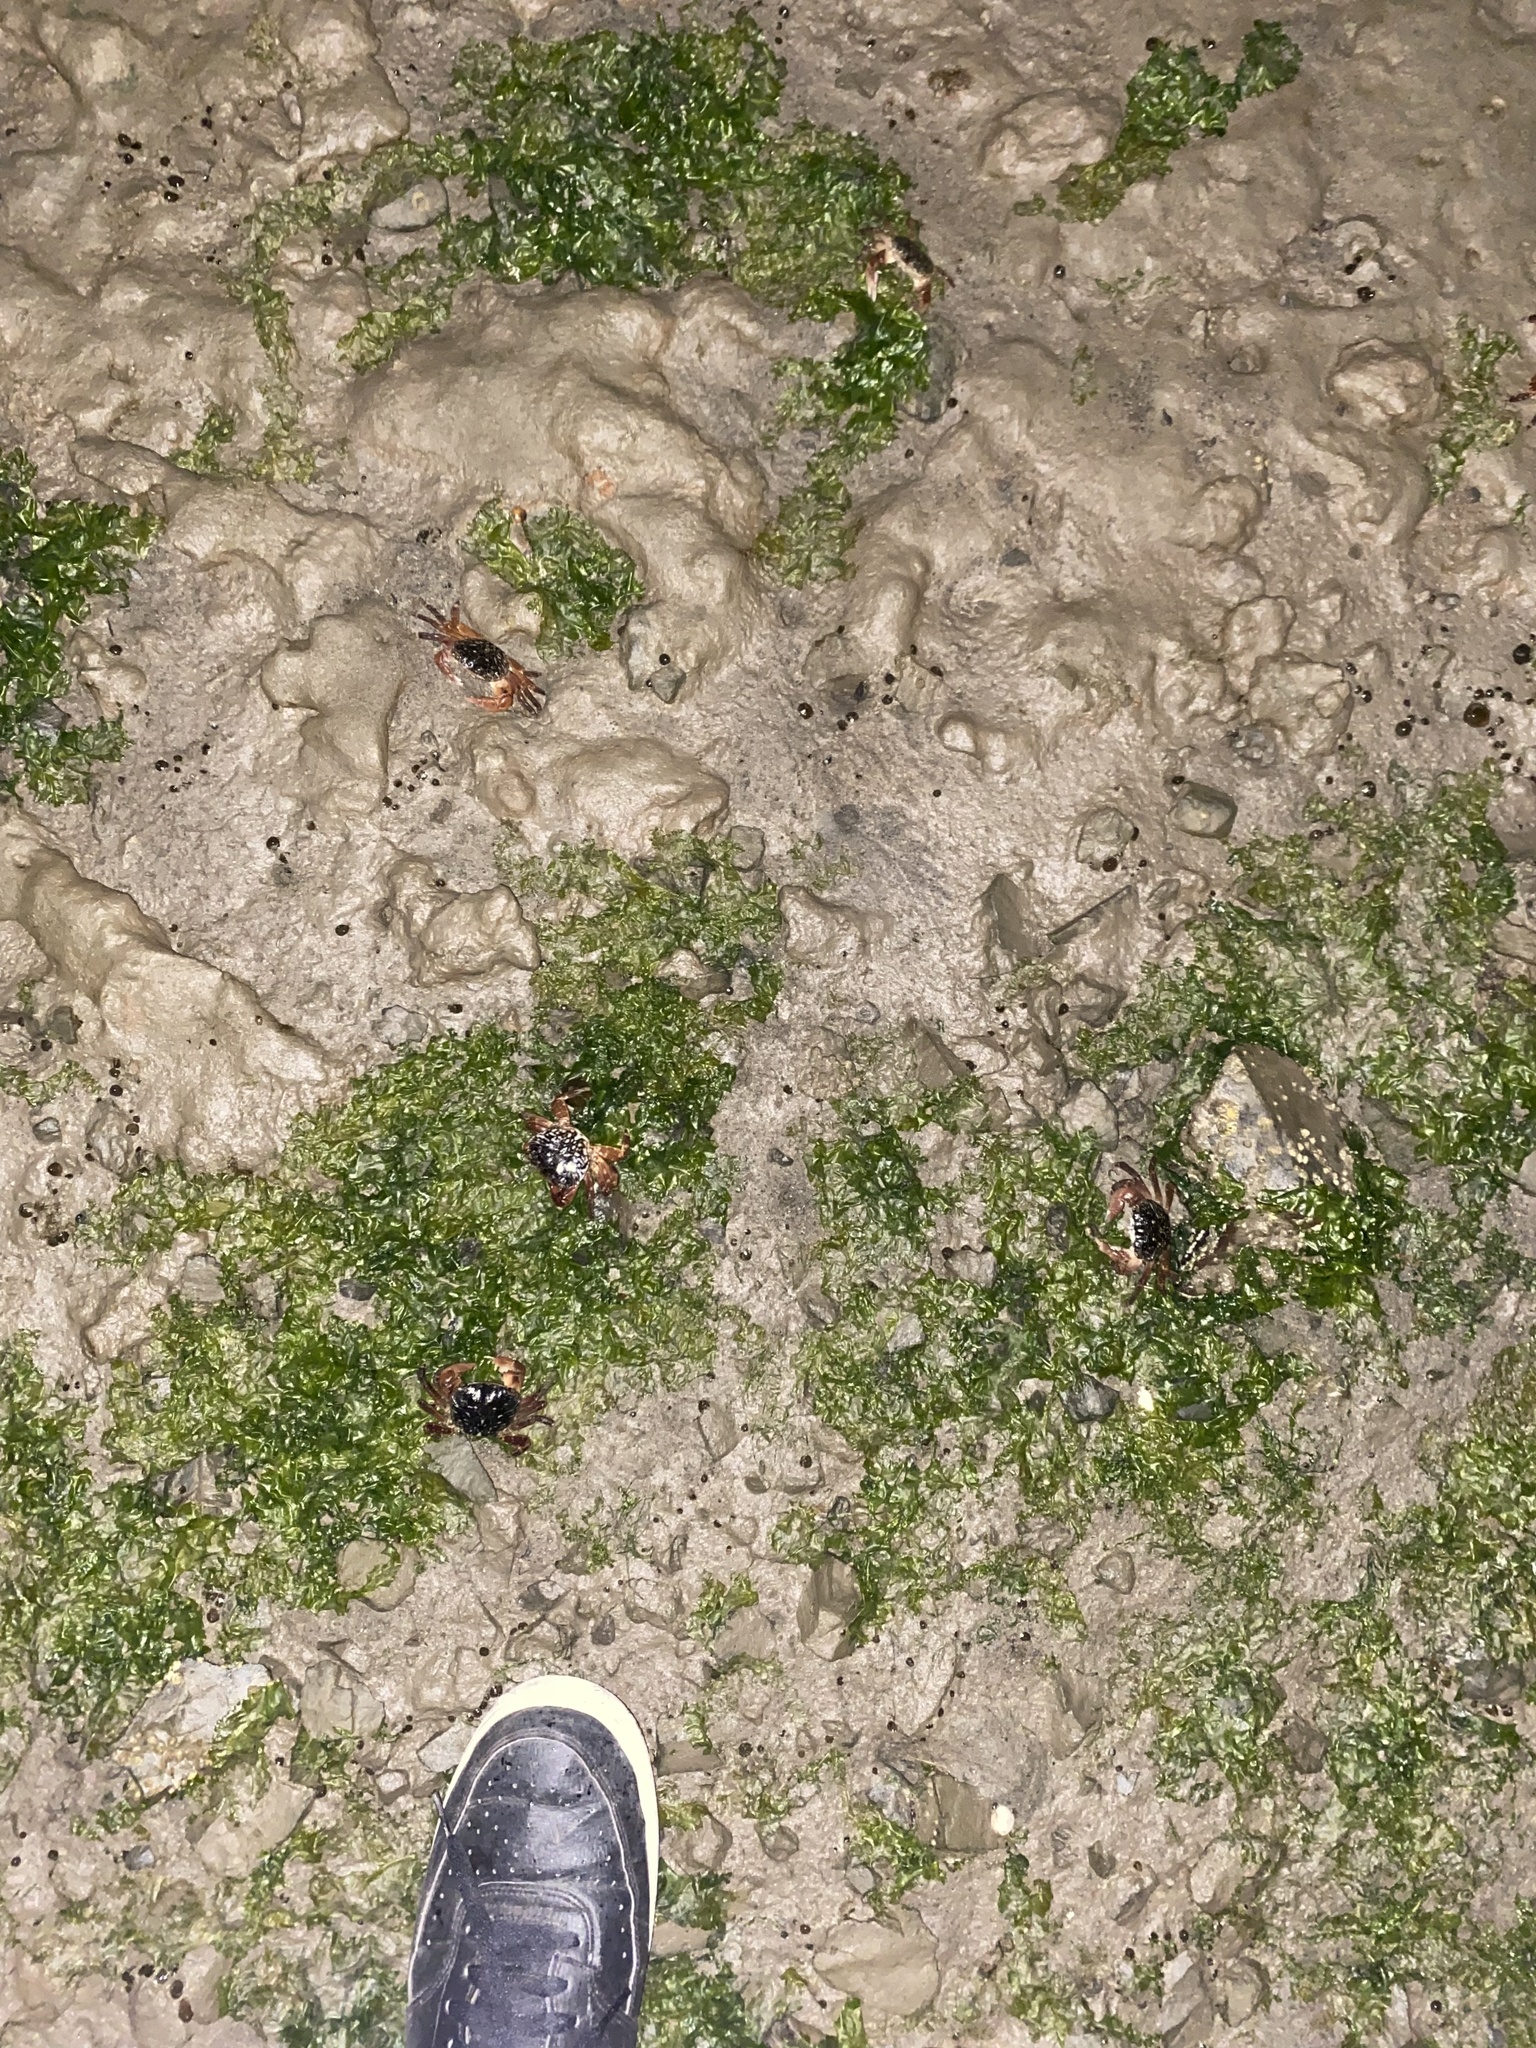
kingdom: Animalia
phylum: Arthropoda
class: Malacostraca
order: Decapoda
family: Grapsidae
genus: Pachygrapsus
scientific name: Pachygrapsus crassipes
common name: Striped shore crab
